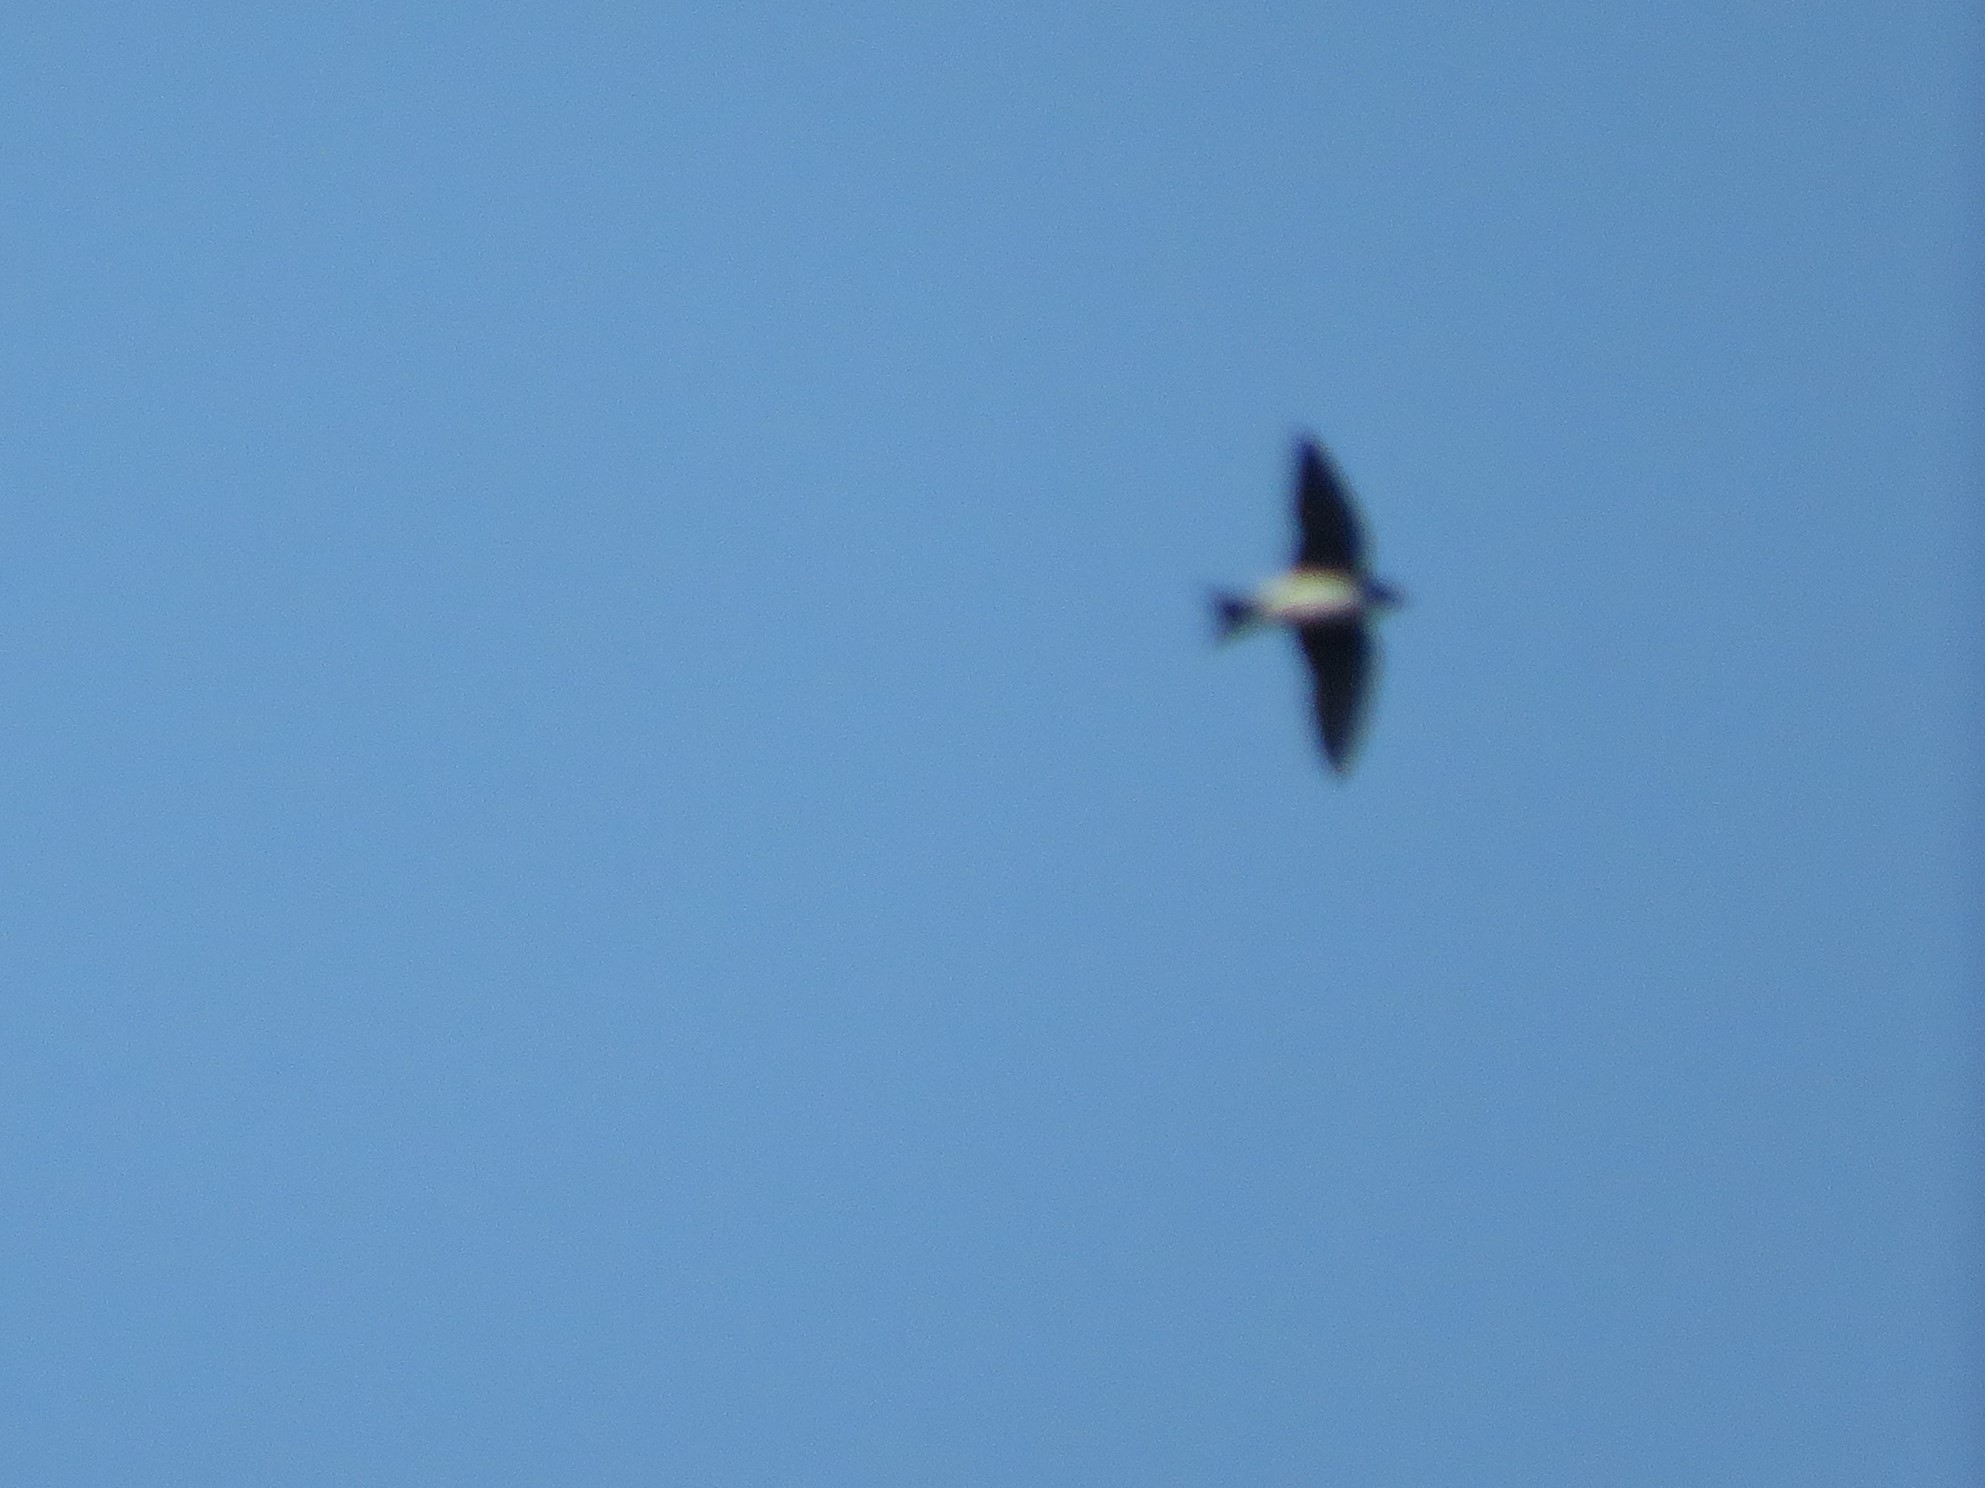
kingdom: Animalia
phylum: Chordata
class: Aves
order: Passeriformes
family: Hirundinidae
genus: Progne
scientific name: Progne chalybea
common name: Grey-breasted martin
